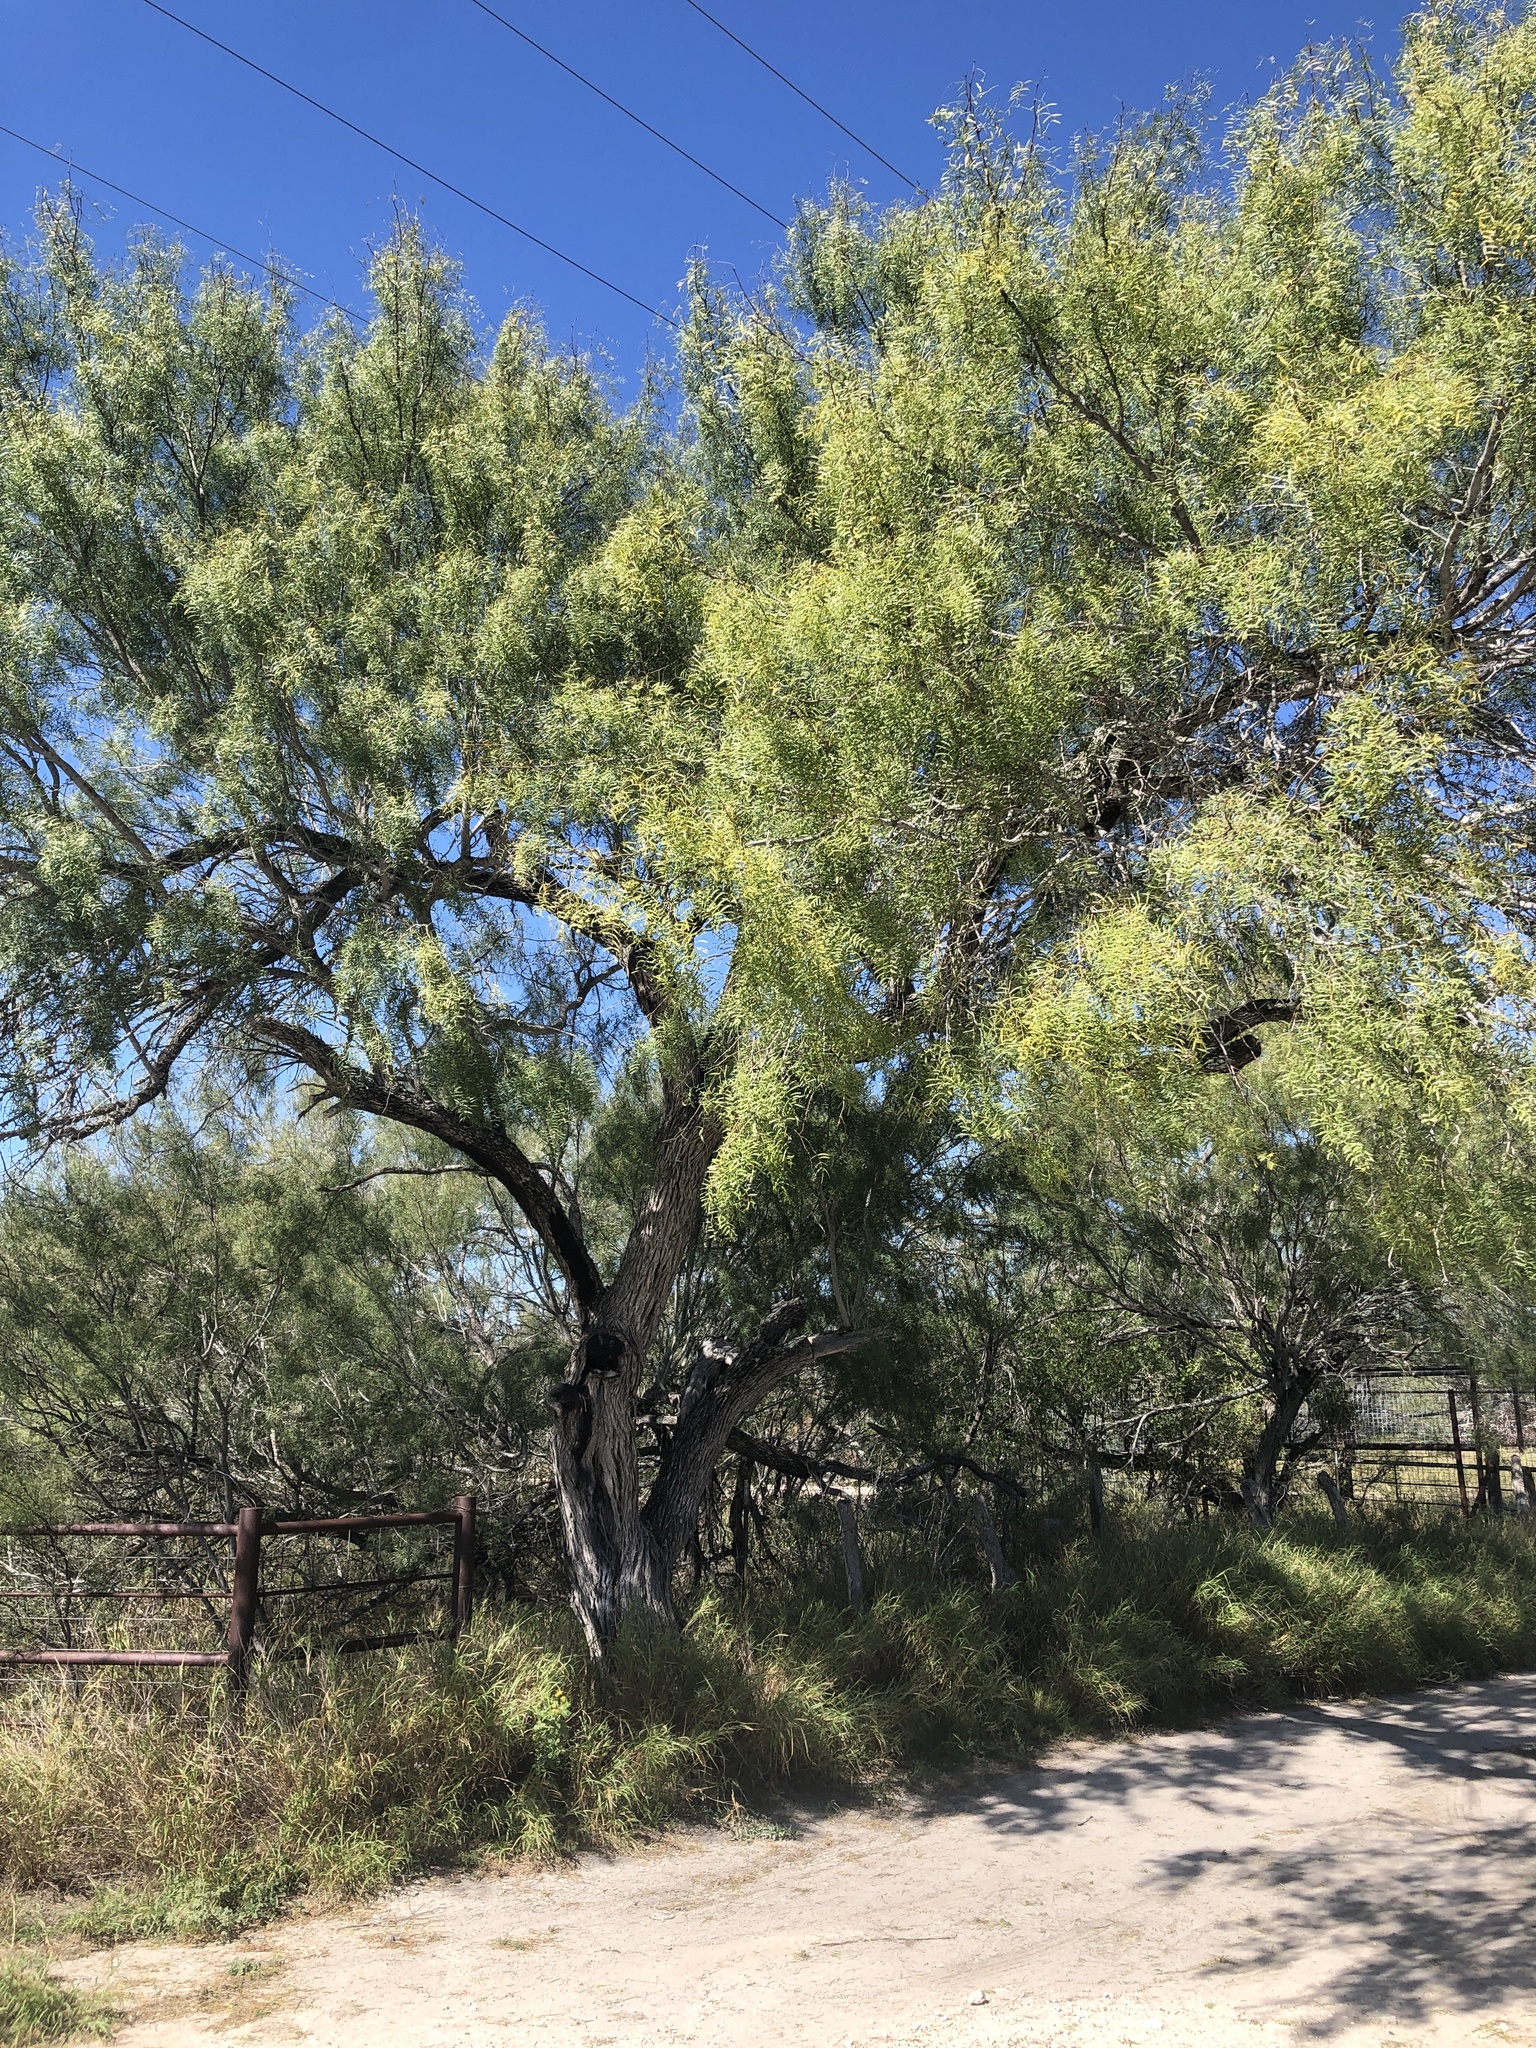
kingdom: Plantae
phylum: Tracheophyta
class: Magnoliopsida
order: Fabales
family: Fabaceae
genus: Prosopis
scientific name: Prosopis glandulosa
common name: Honey mesquite
